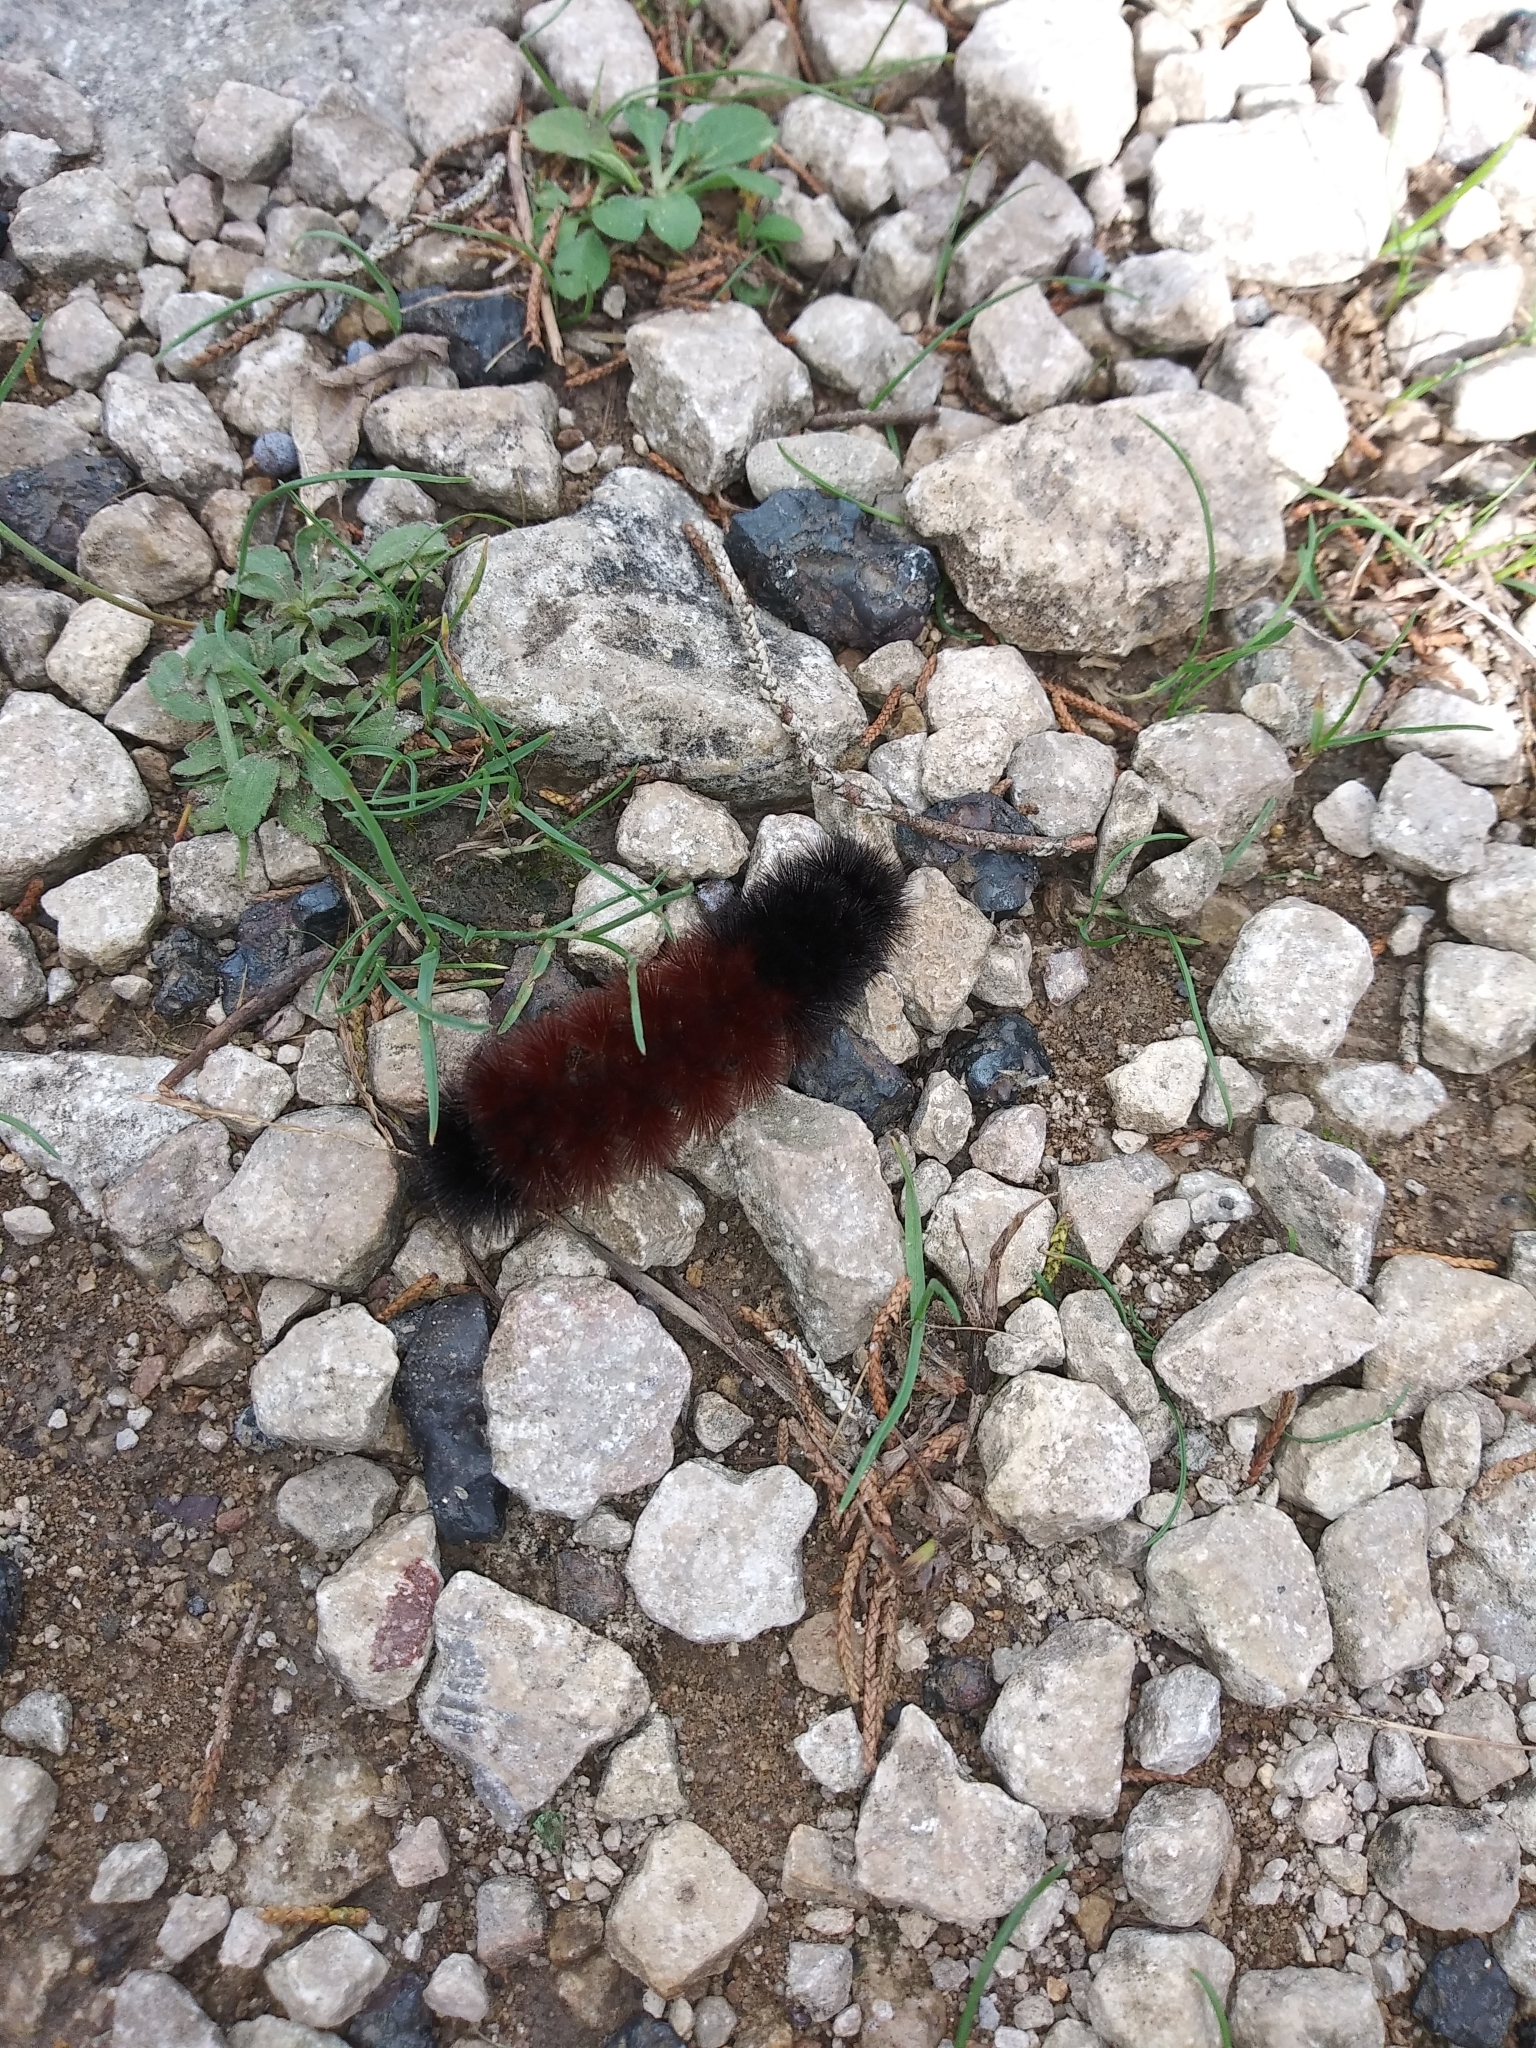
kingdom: Animalia
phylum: Arthropoda
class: Insecta
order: Lepidoptera
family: Erebidae
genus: Pyrrharctia
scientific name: Pyrrharctia isabella
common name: Isabella tiger moth
